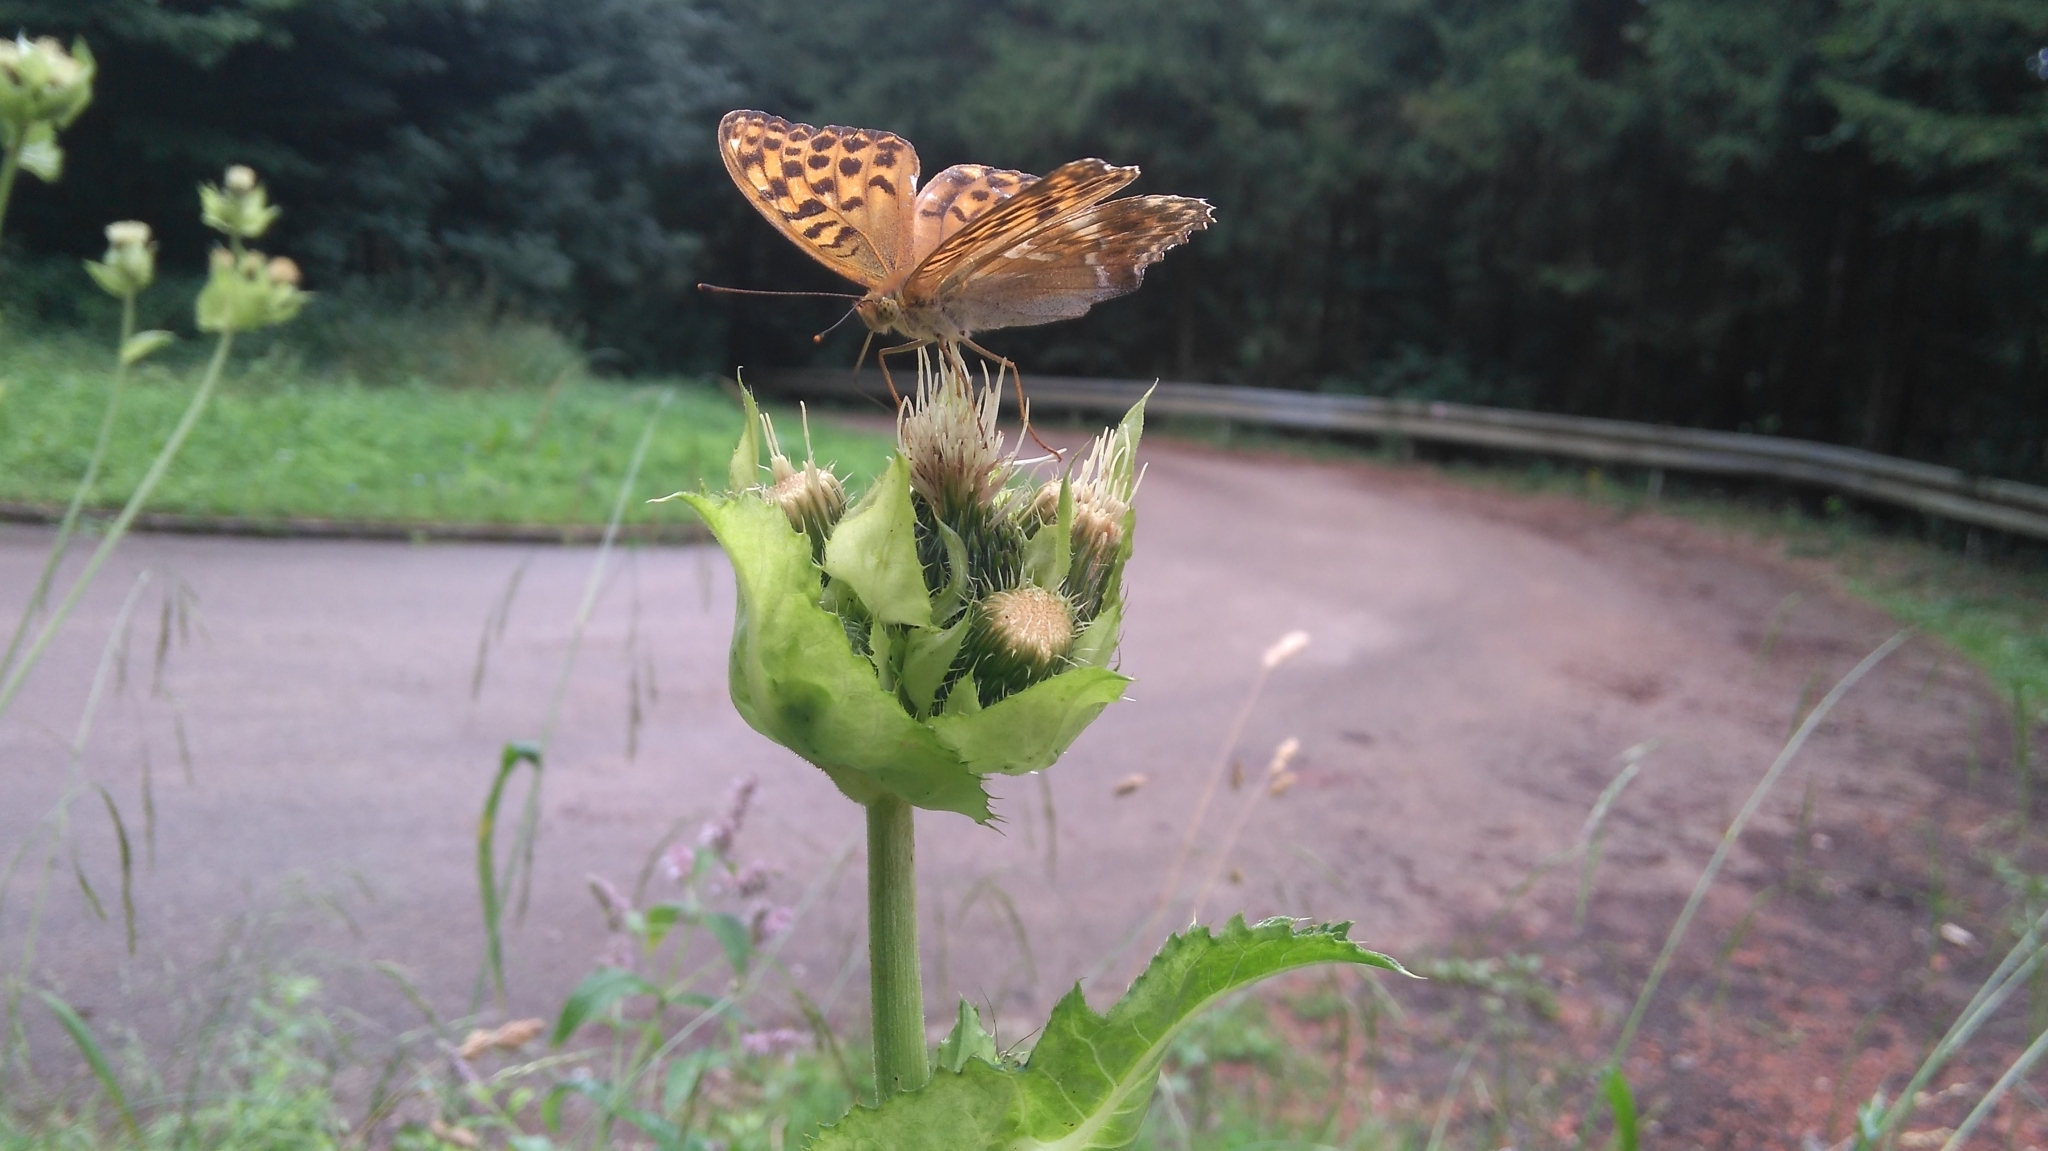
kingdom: Animalia
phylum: Arthropoda
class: Insecta
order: Lepidoptera
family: Nymphalidae
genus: Argynnis
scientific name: Argynnis paphia
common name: Silver-washed fritillary
